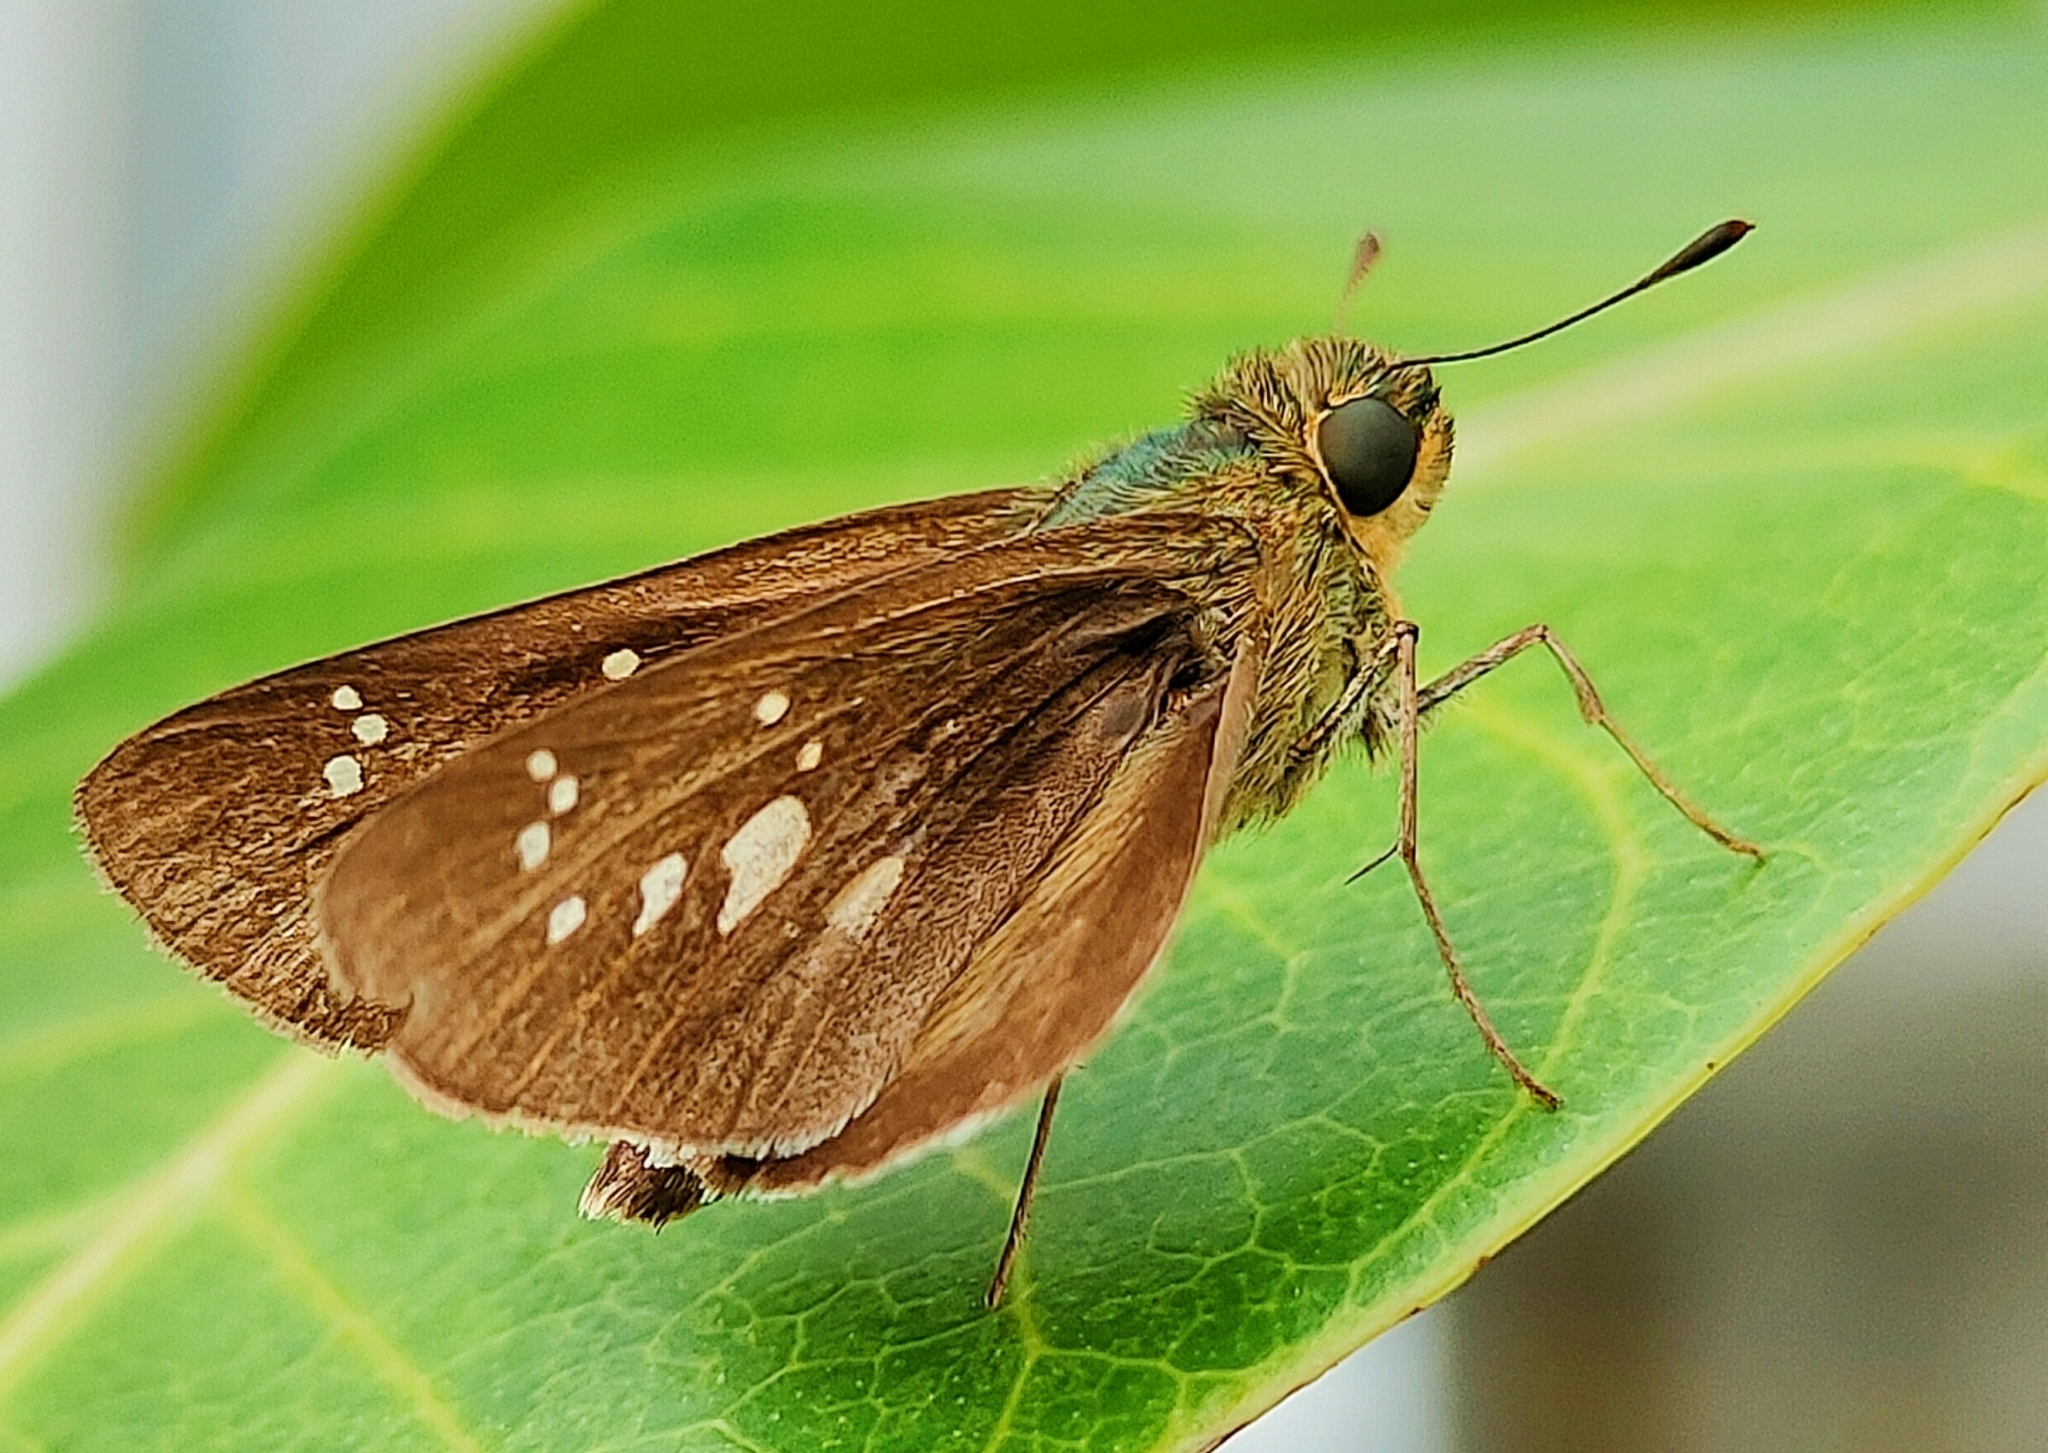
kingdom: Animalia
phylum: Arthropoda
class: Insecta
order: Lepidoptera
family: Hesperiidae
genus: Pelopidas
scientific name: Pelopidas mathias
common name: Black-branded swift
